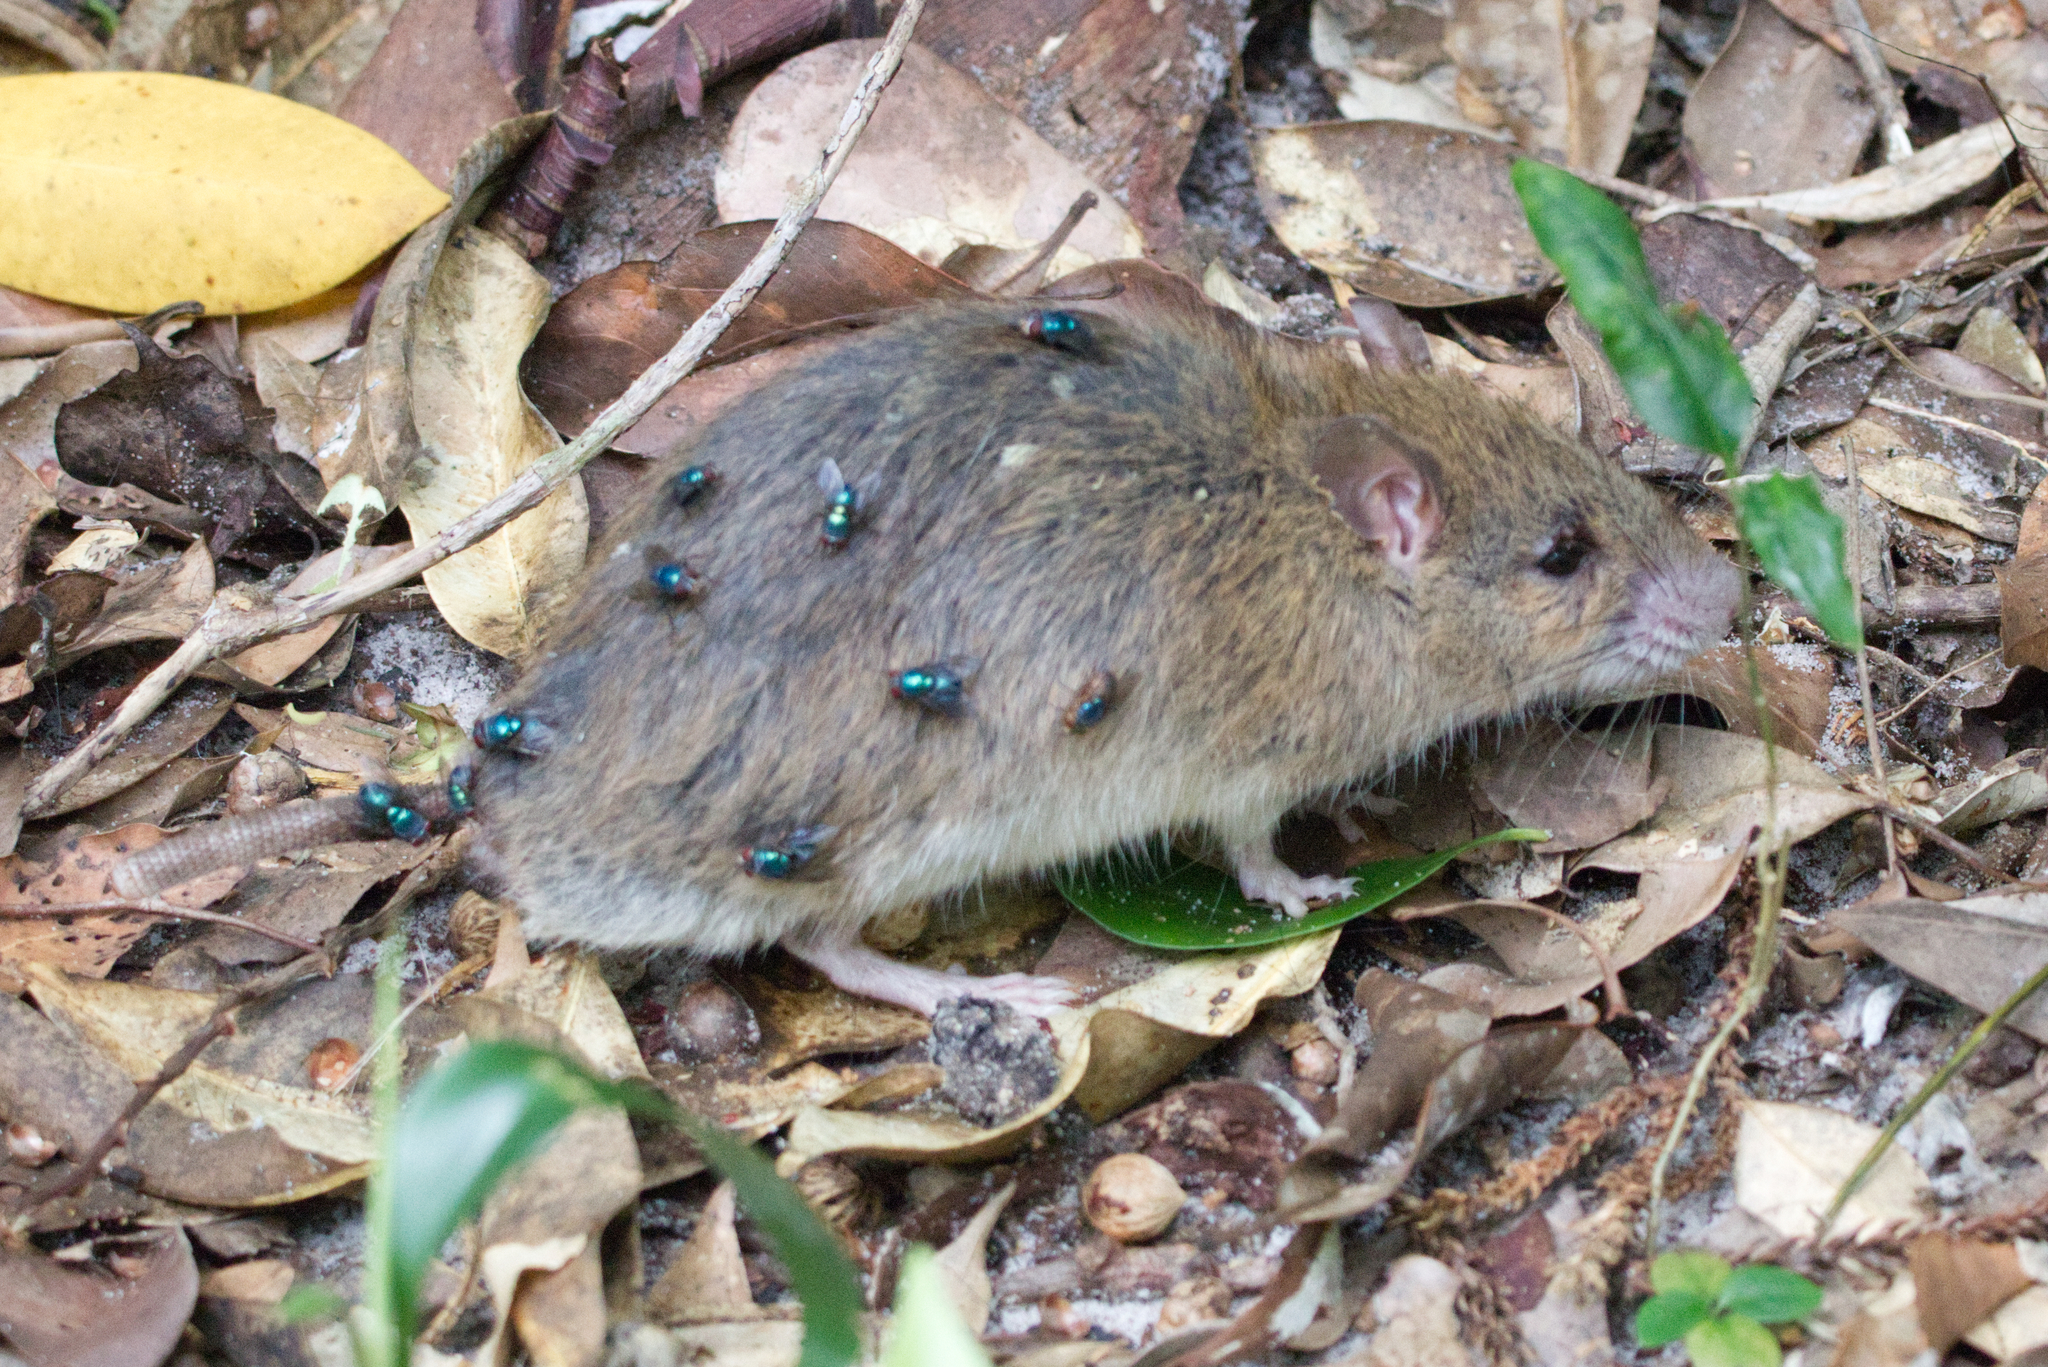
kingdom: Animalia
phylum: Chordata
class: Mammalia
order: Rodentia
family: Muridae
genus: Rattus
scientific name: Rattus fuscipes
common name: Australian bush rat
